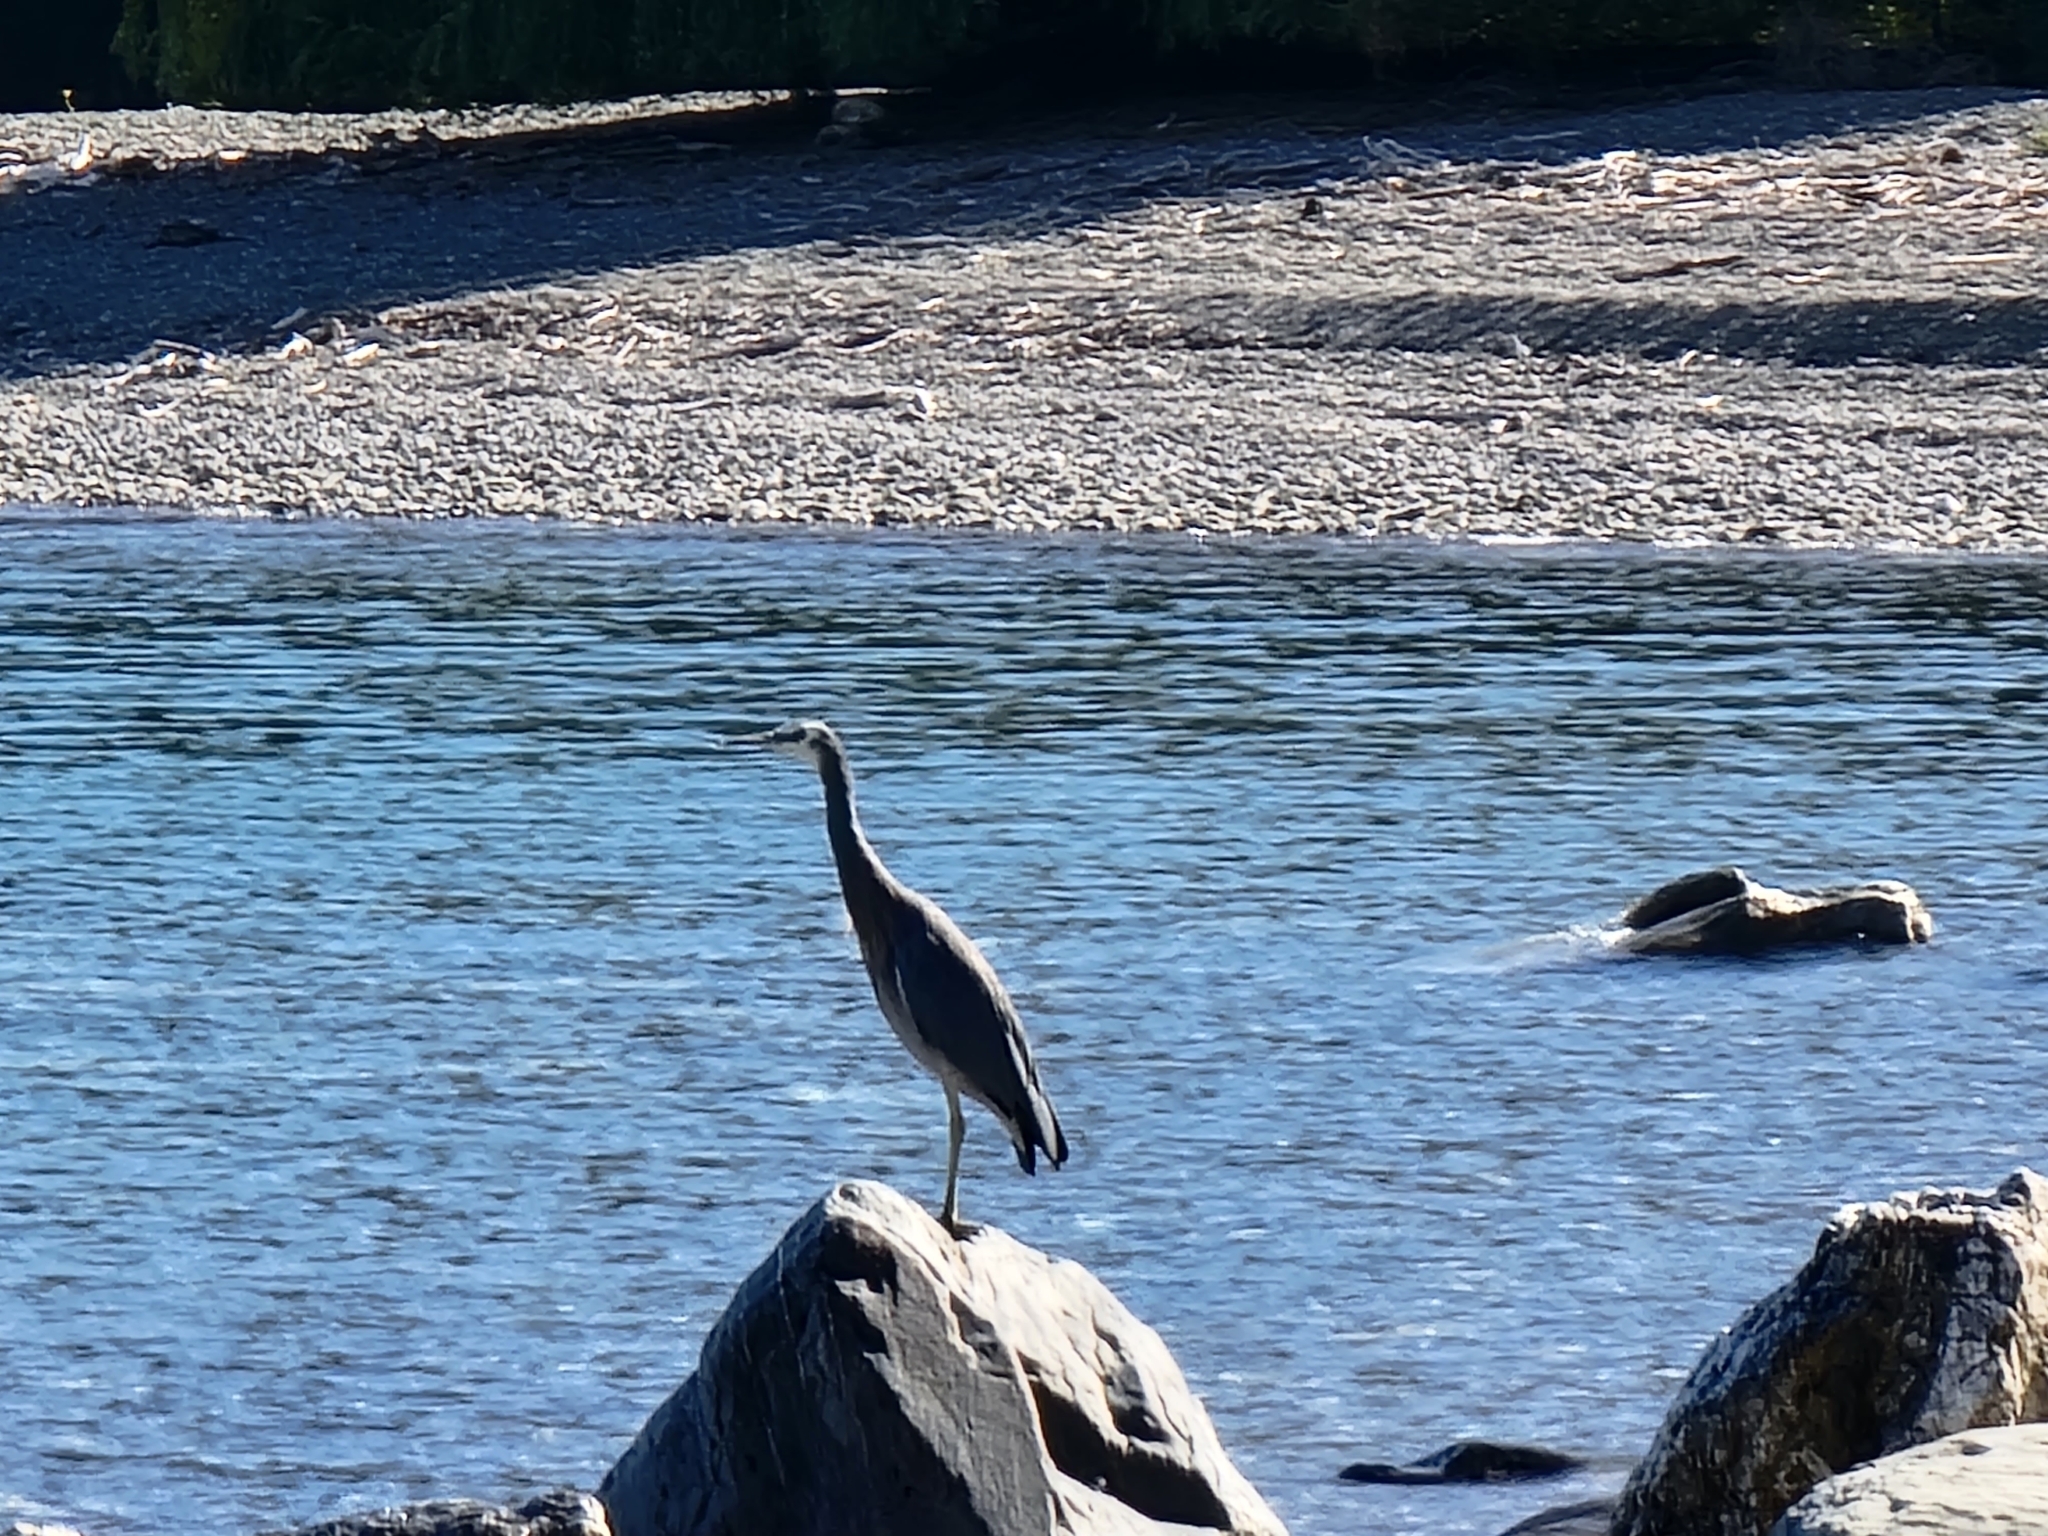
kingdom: Animalia
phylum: Chordata
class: Aves
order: Pelecaniformes
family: Ardeidae
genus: Egretta
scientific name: Egretta novaehollandiae
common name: White-faced heron
